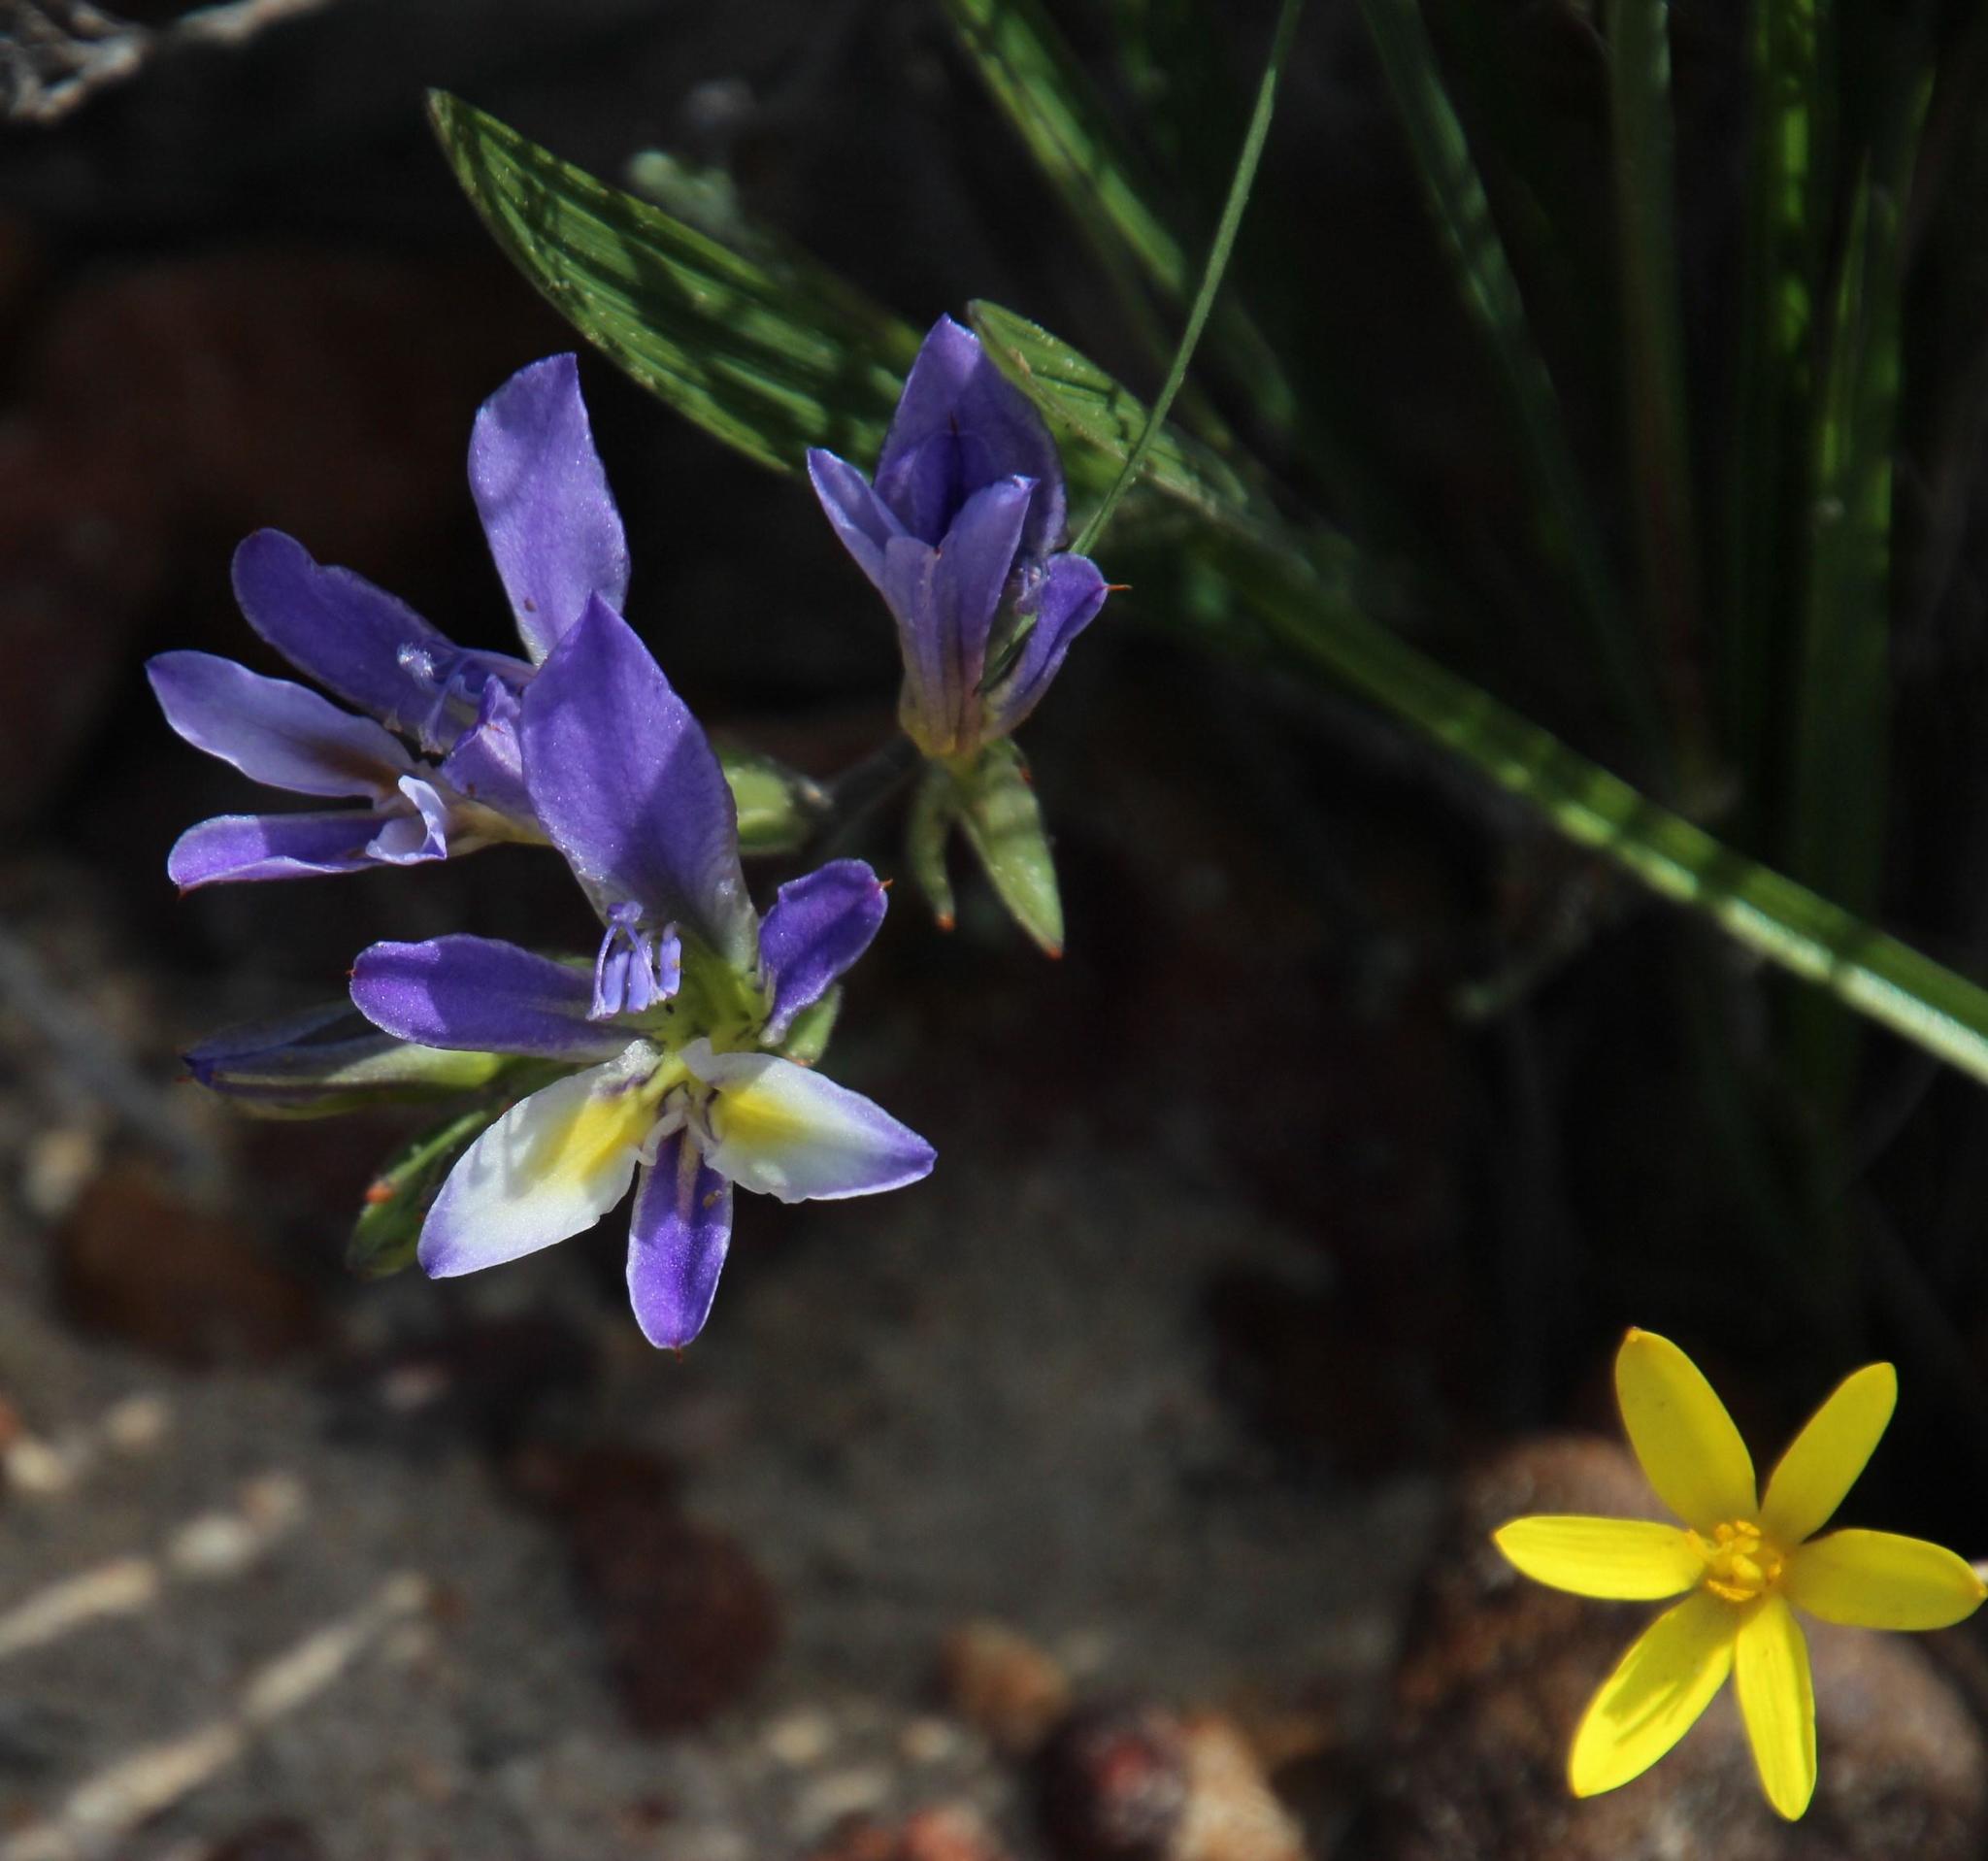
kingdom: Plantae
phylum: Tracheophyta
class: Liliopsida
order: Asparagales
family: Hypoxidaceae
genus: Pauridia
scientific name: Pauridia gracilipes
